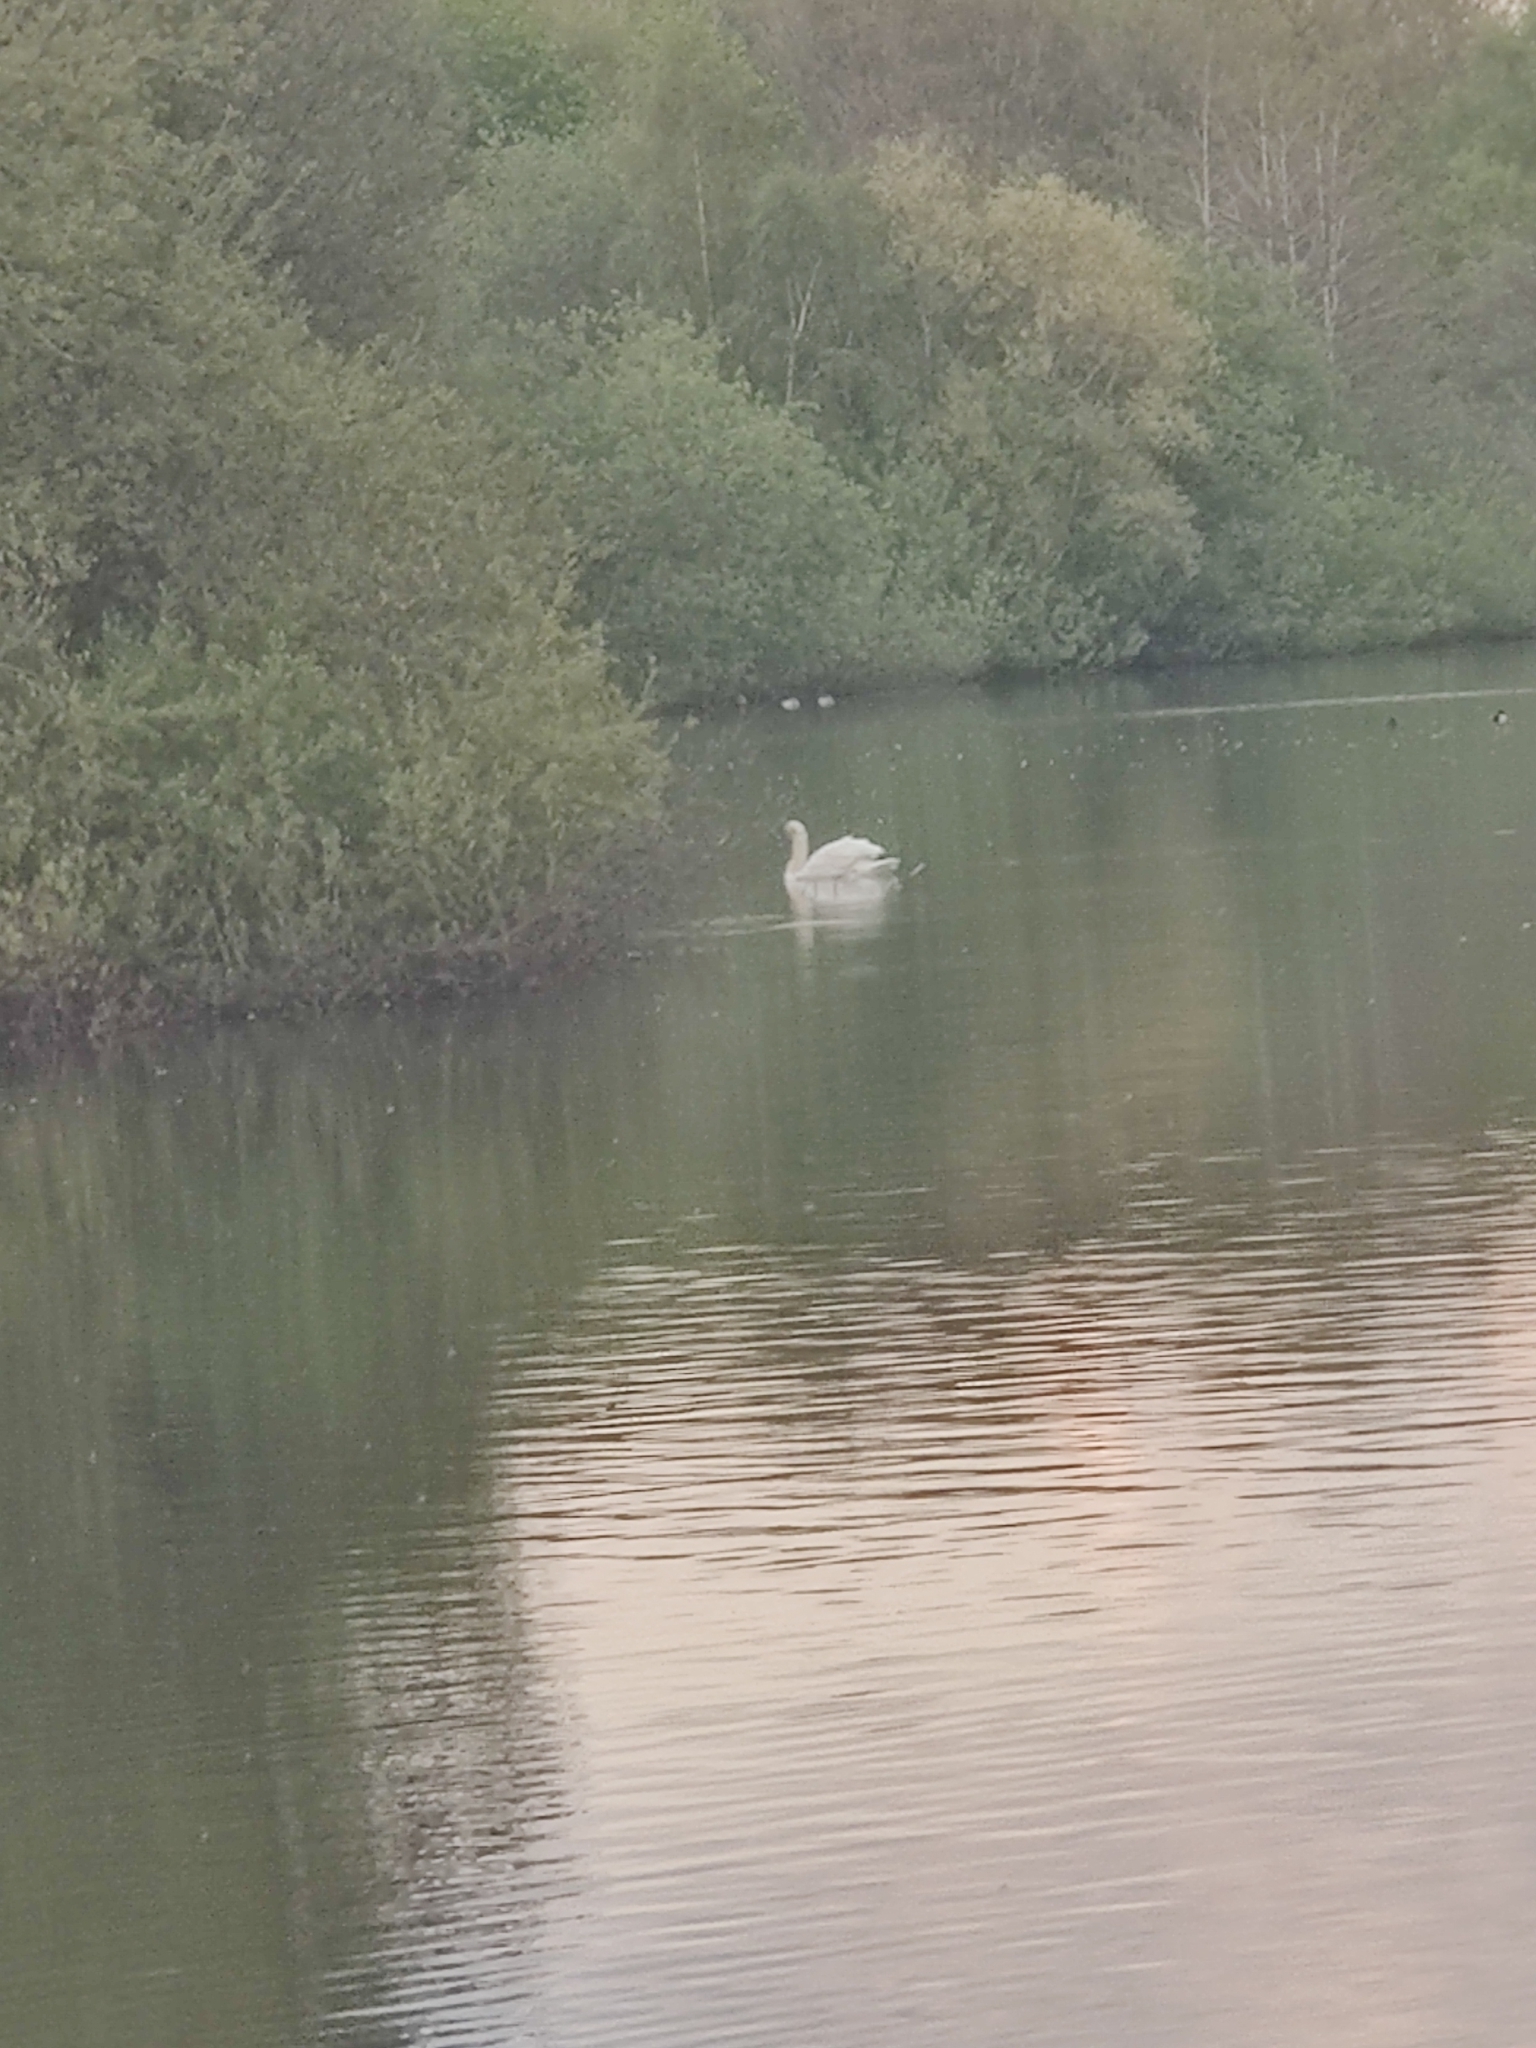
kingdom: Animalia
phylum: Chordata
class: Aves
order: Anseriformes
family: Anatidae
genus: Cygnus
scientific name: Cygnus olor
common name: Mute swan
